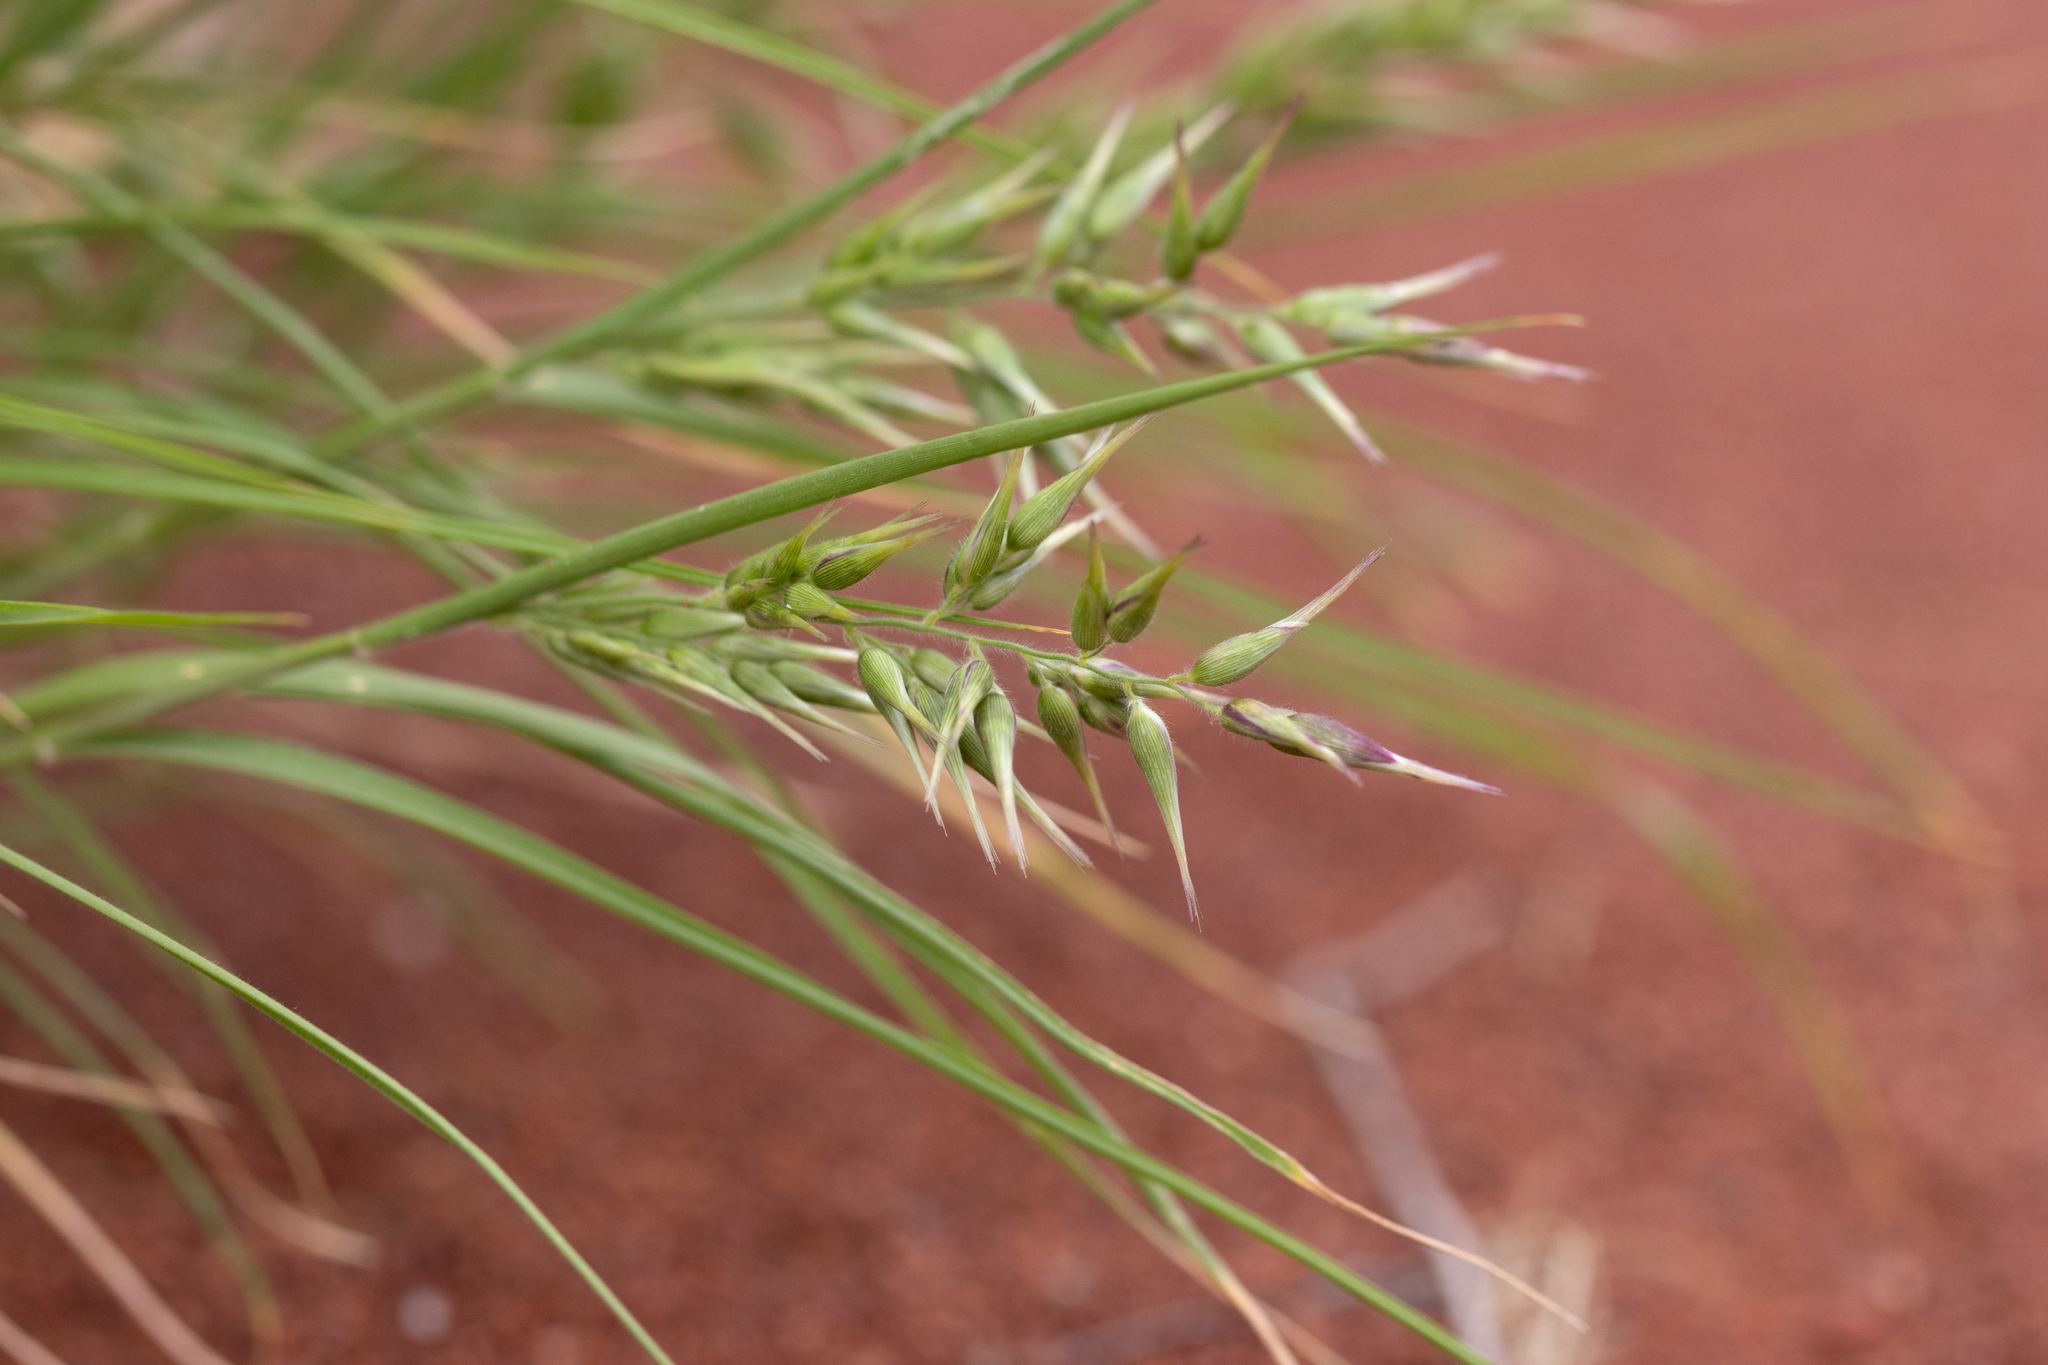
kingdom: Plantae
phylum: Tracheophyta
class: Liliopsida
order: Poales
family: Poaceae
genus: Enneapogon
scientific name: Enneapogon avenaceus
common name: Hairy oat grass
